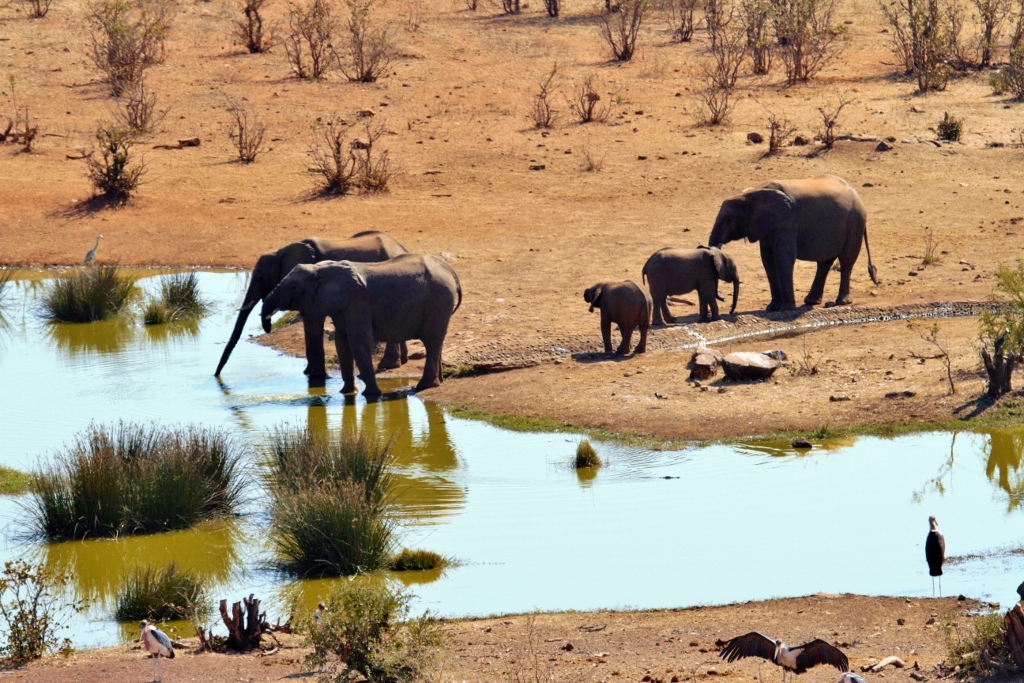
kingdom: Animalia
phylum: Chordata
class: Mammalia
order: Proboscidea
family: Elephantidae
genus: Loxodonta
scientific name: Loxodonta africana
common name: African elephant
